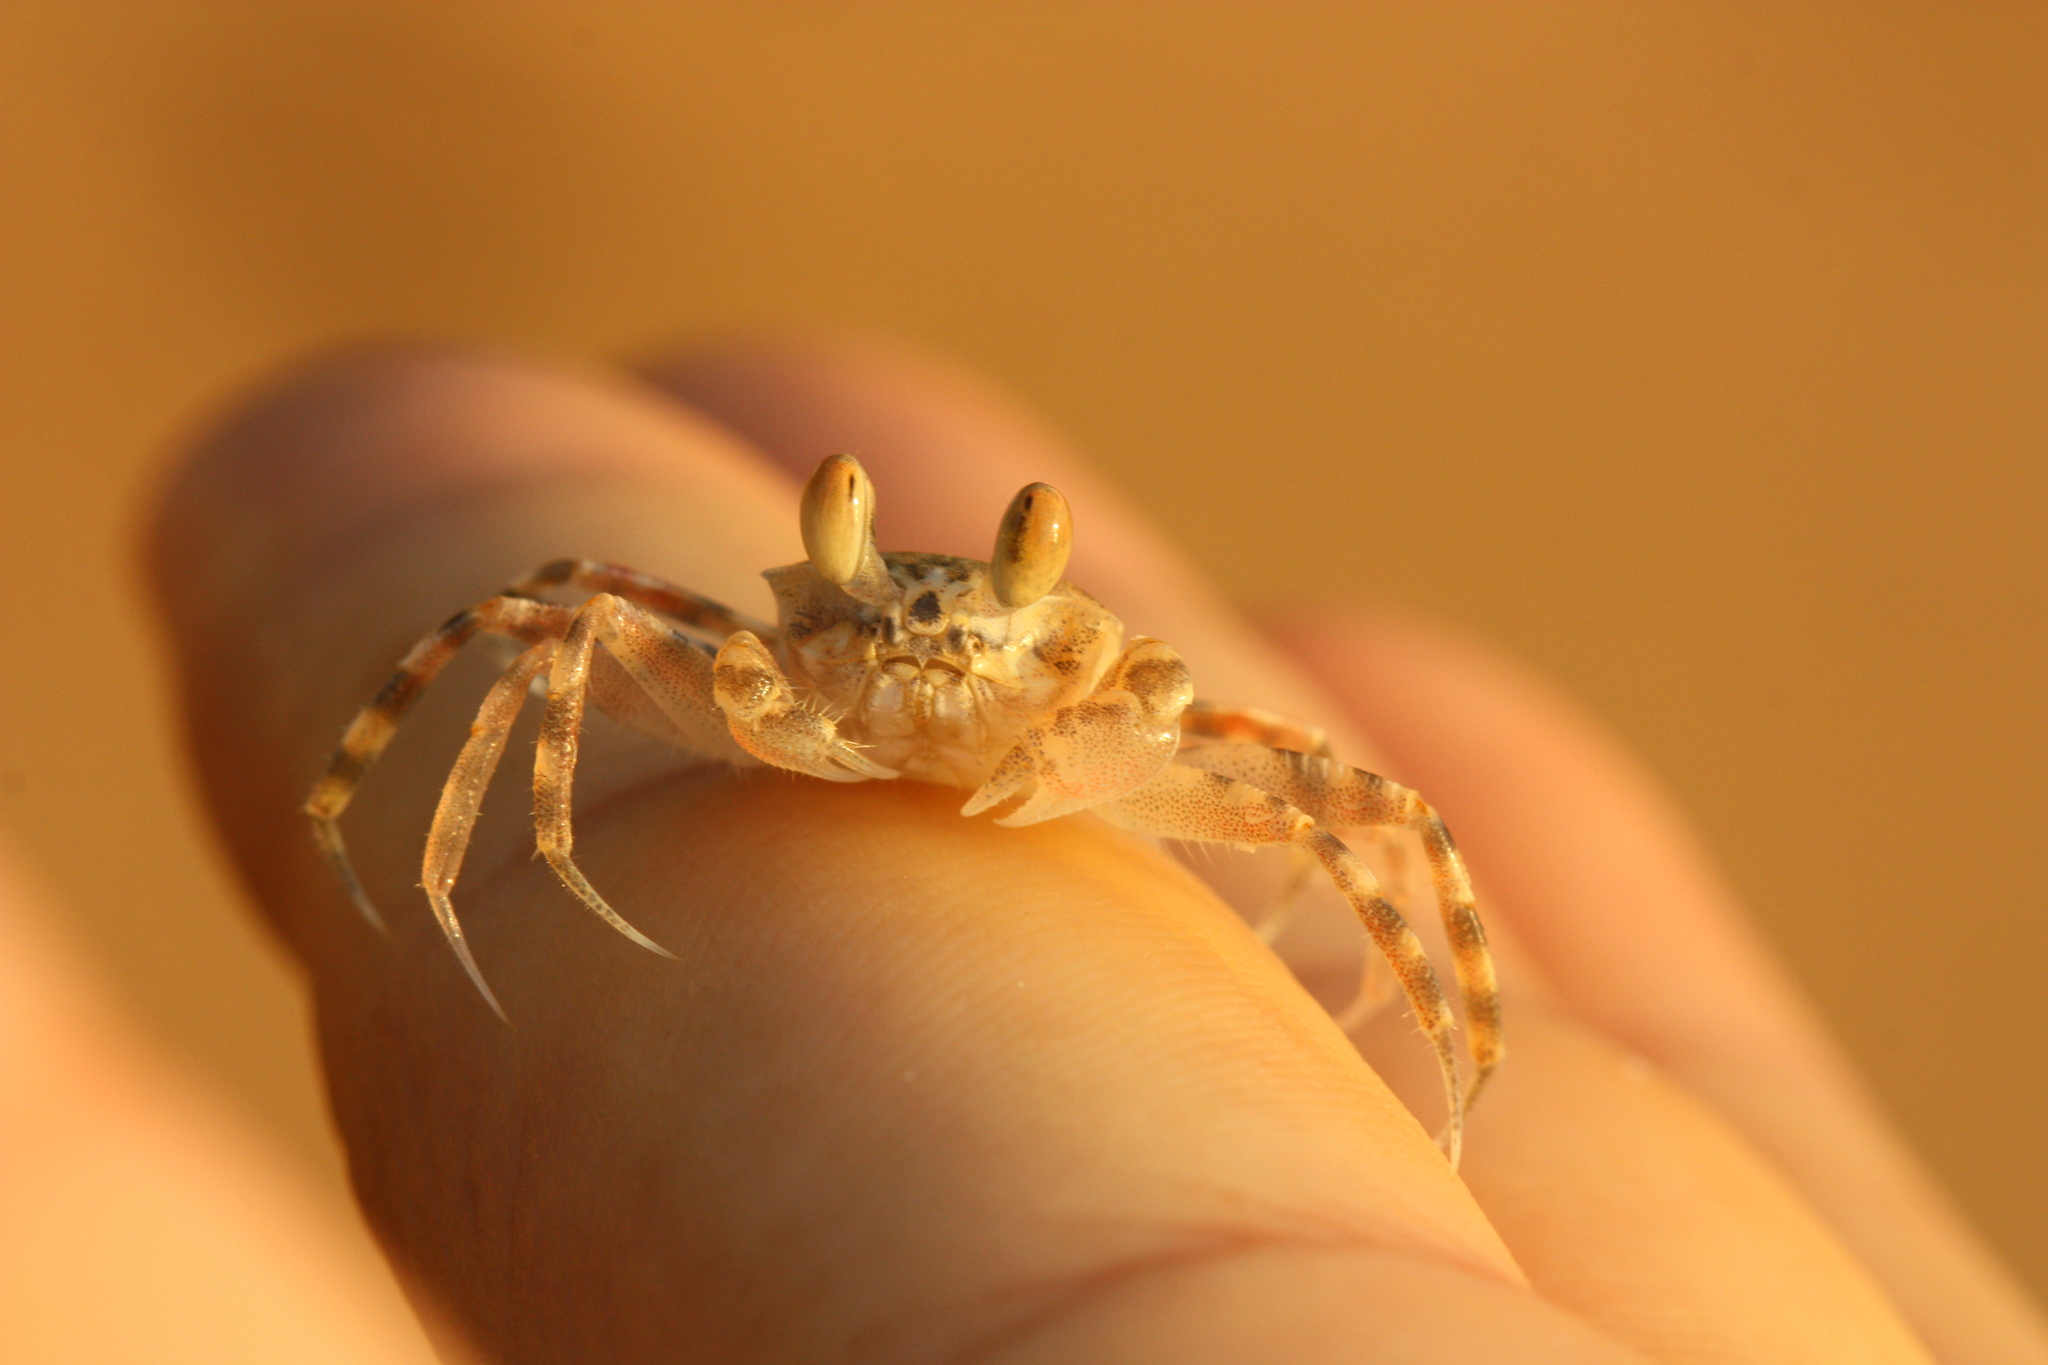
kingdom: Animalia
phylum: Arthropoda
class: Malacostraca
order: Decapoda
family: Ocypodidae
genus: Ocypode
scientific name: Ocypode
